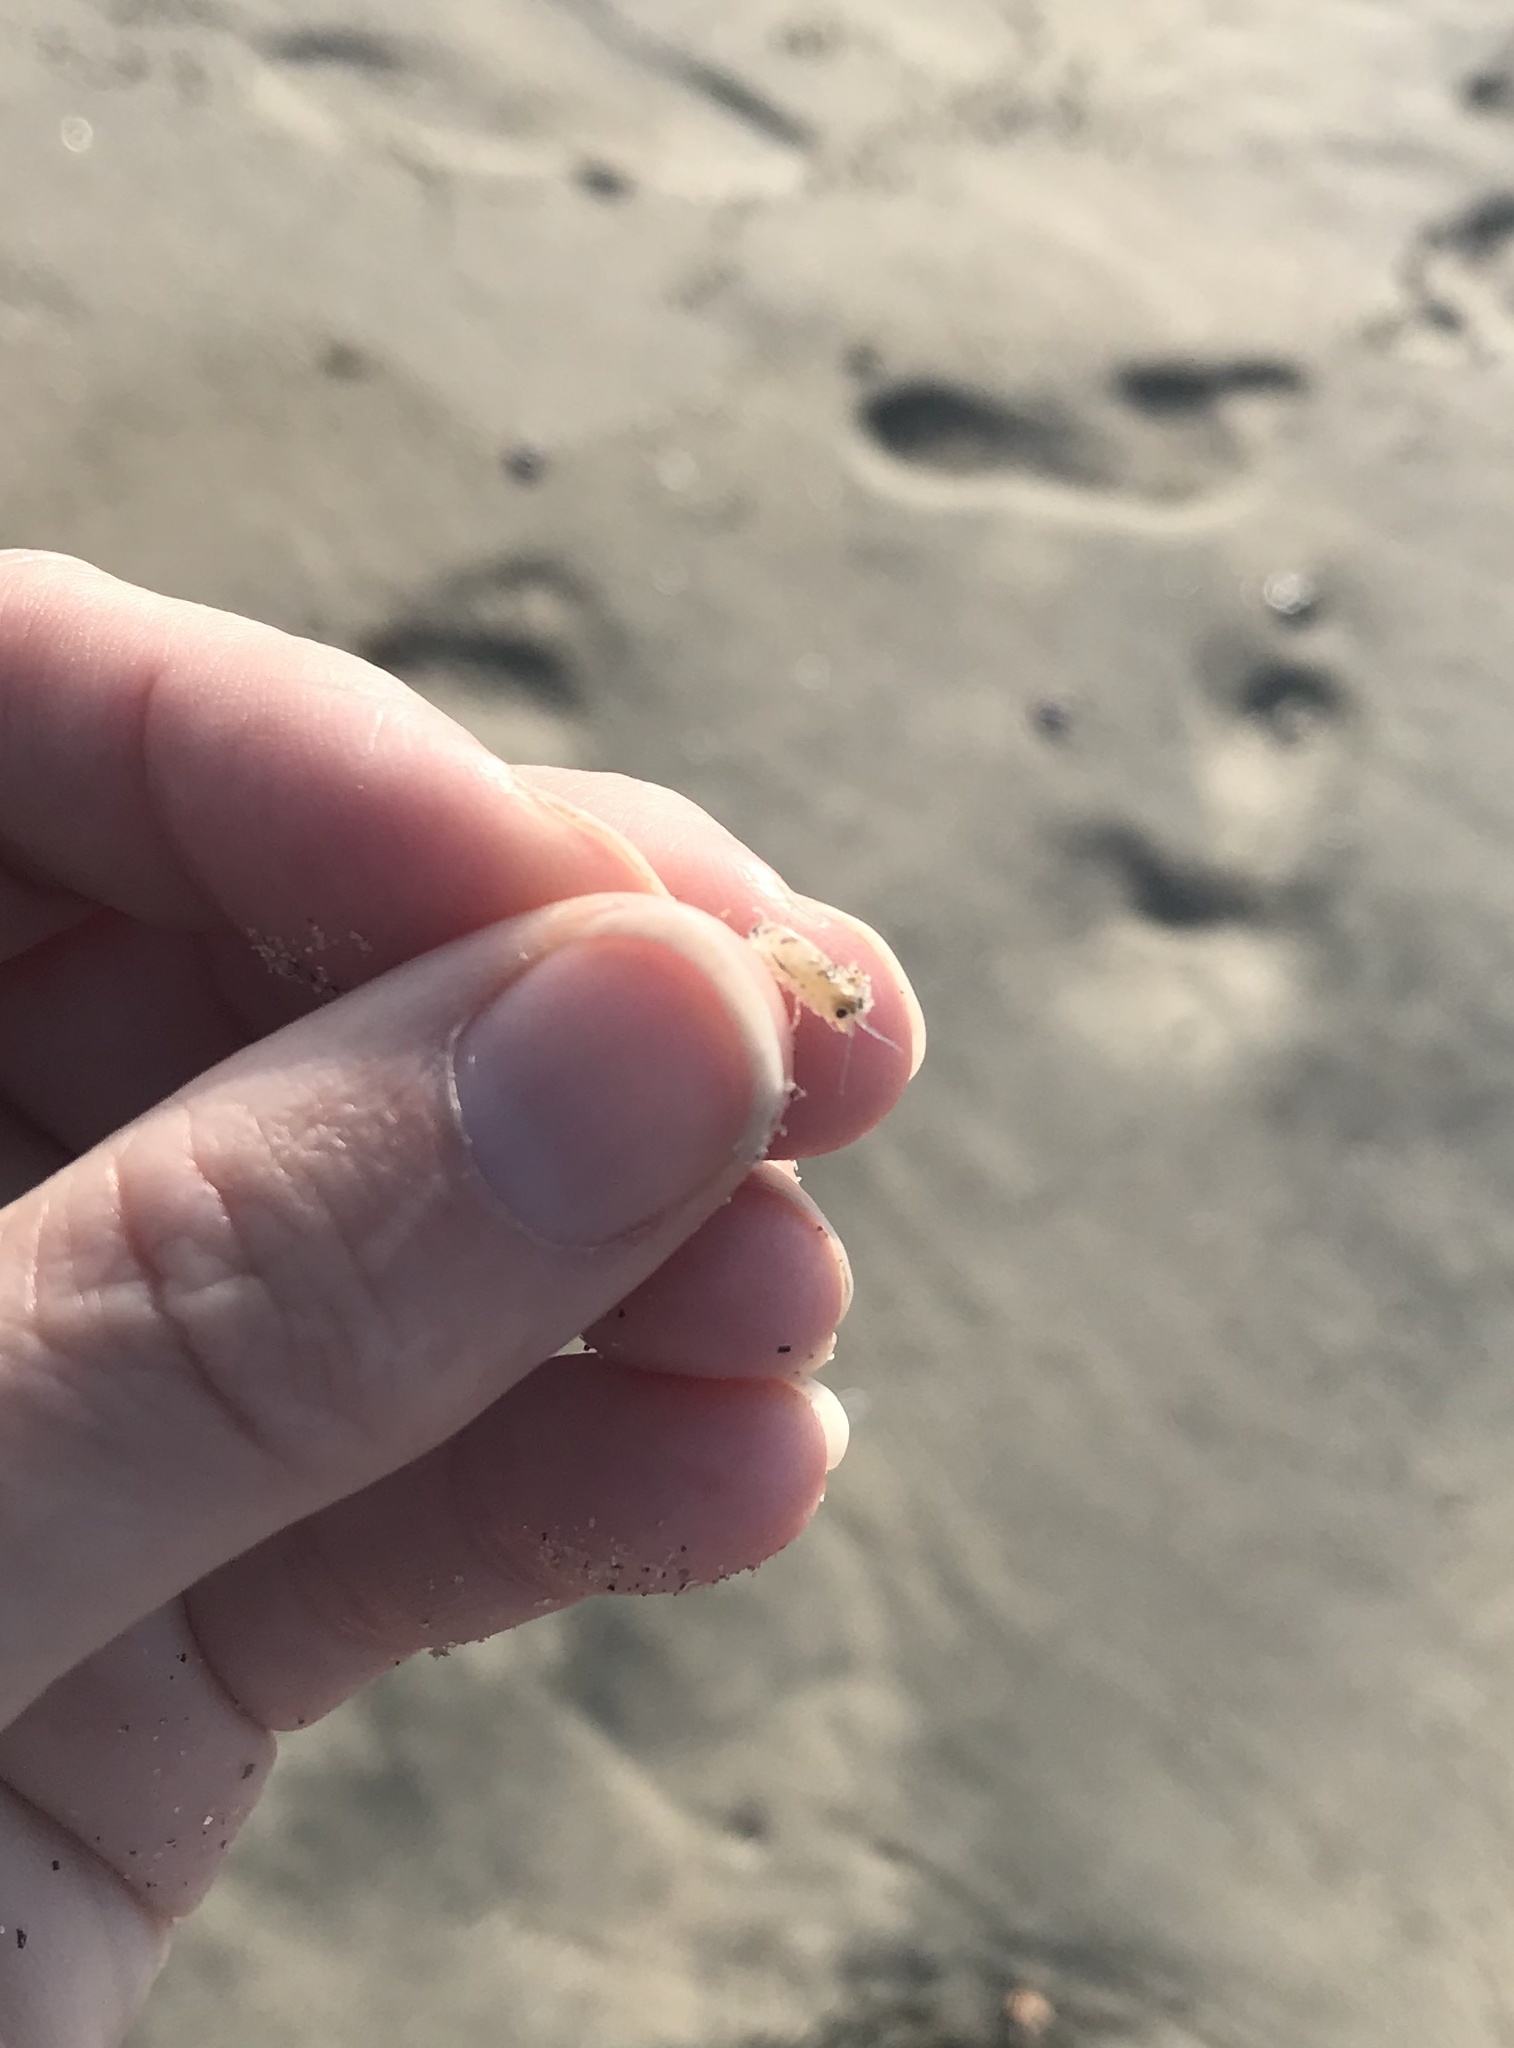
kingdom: Animalia
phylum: Arthropoda
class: Malacostraca
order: Amphipoda
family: Talitridae
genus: Megalorchestia
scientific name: Megalorchestia minor
